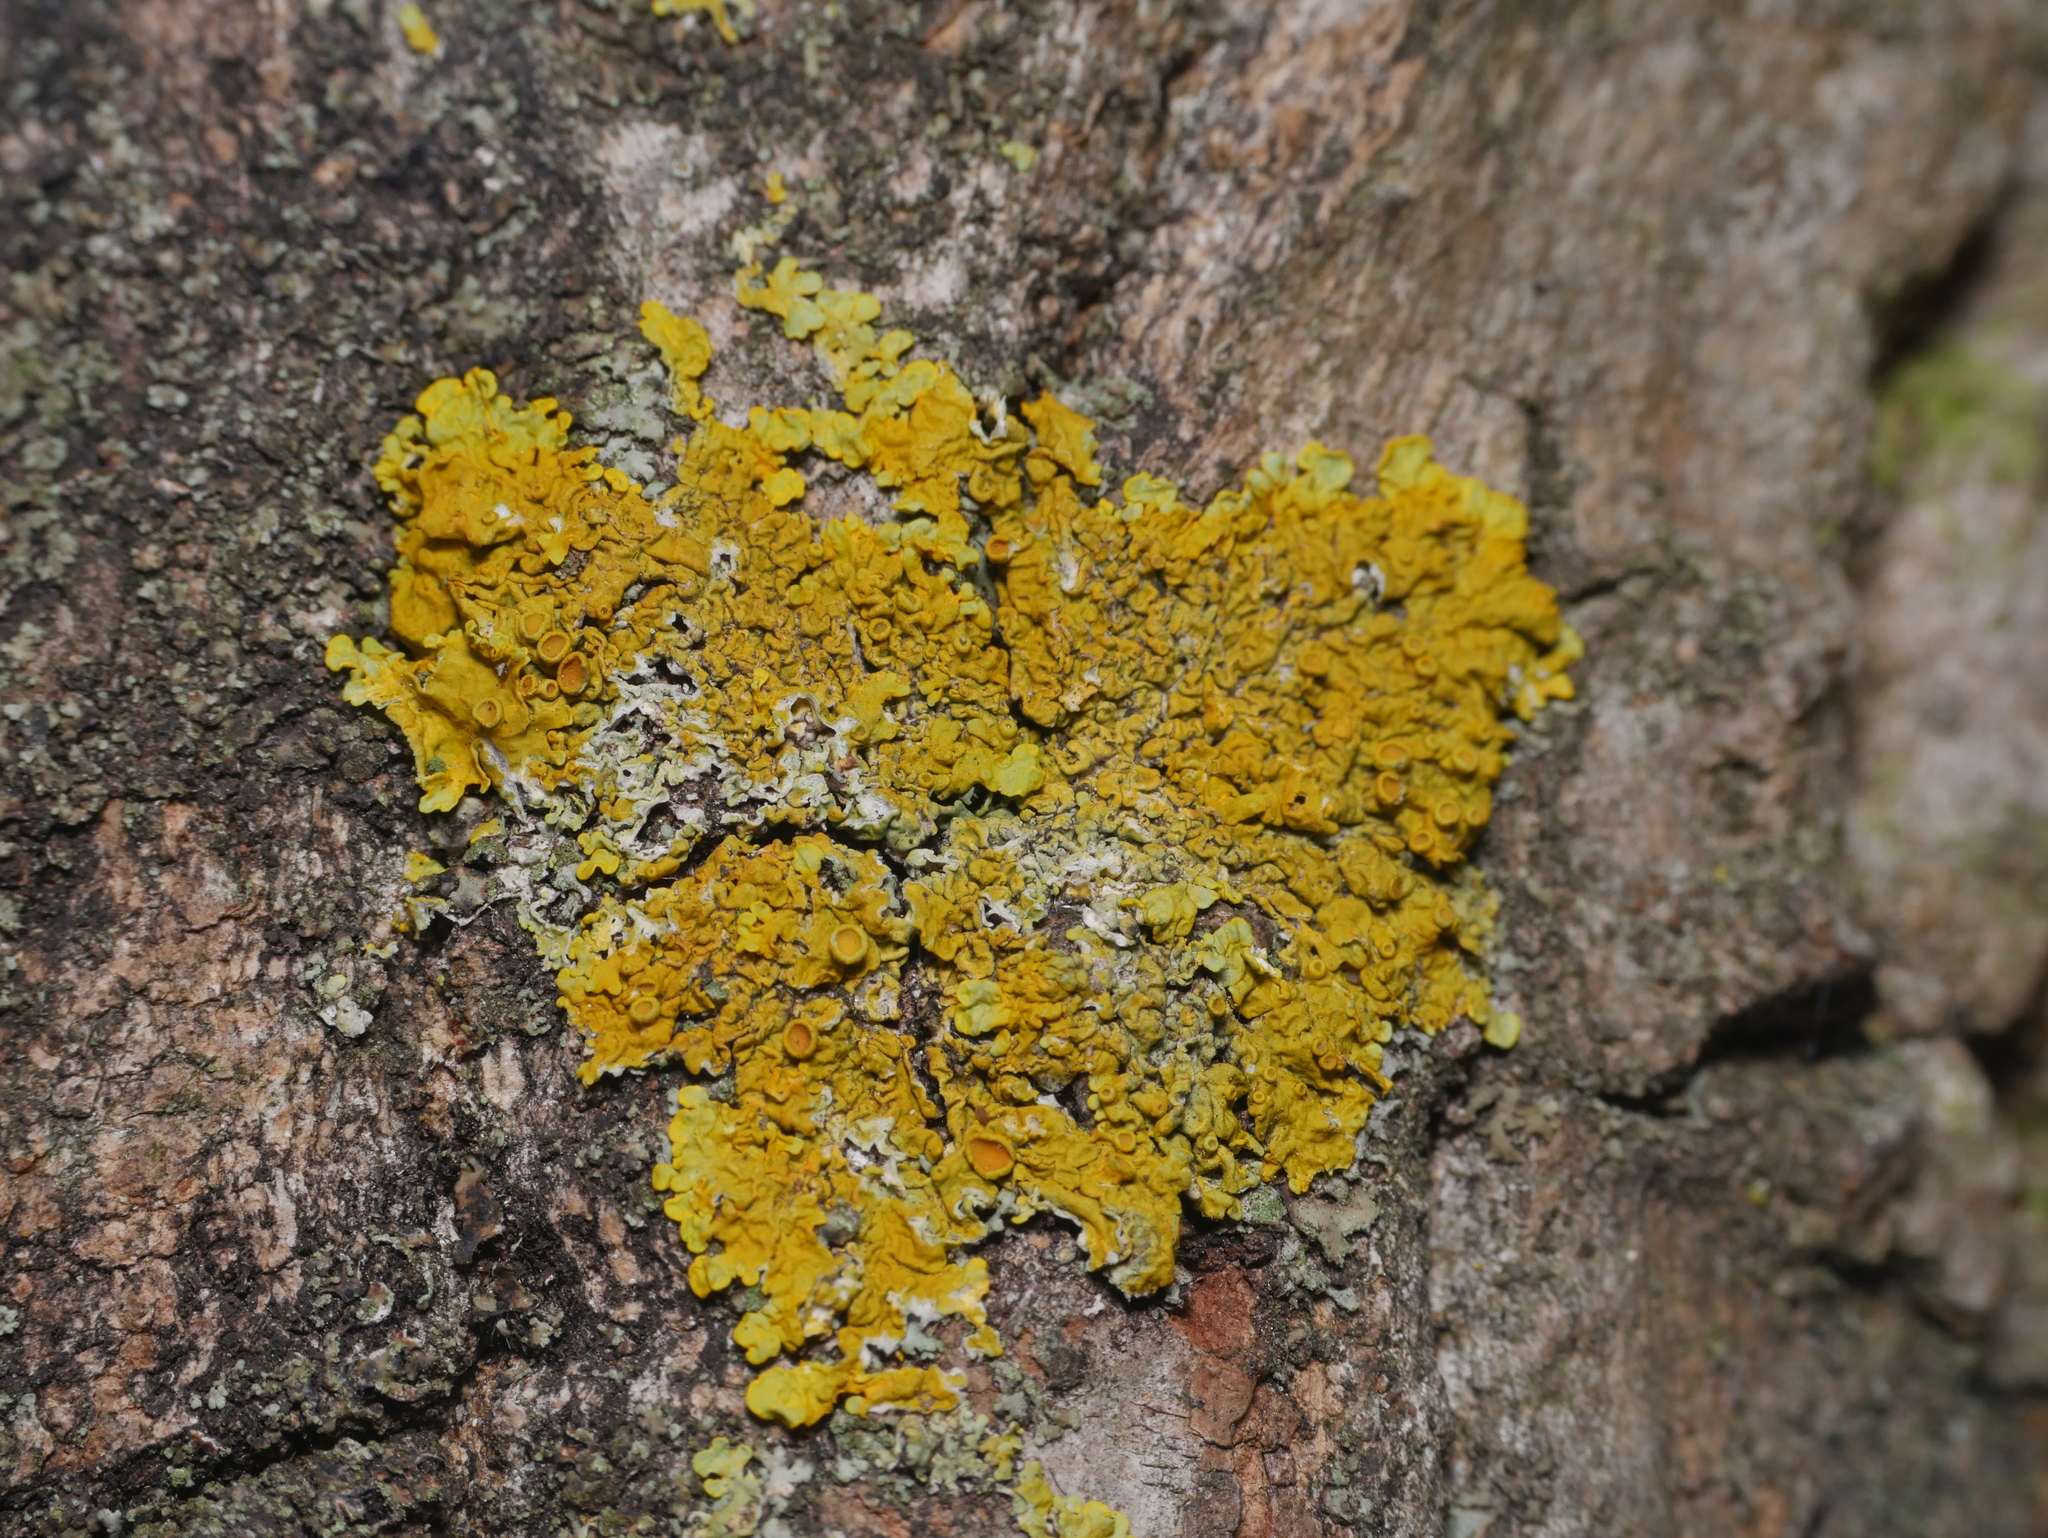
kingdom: Fungi
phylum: Ascomycota
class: Lecanoromycetes
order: Teloschistales
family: Teloschistaceae
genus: Xanthoria
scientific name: Xanthoria parietina
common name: Common orange lichen
